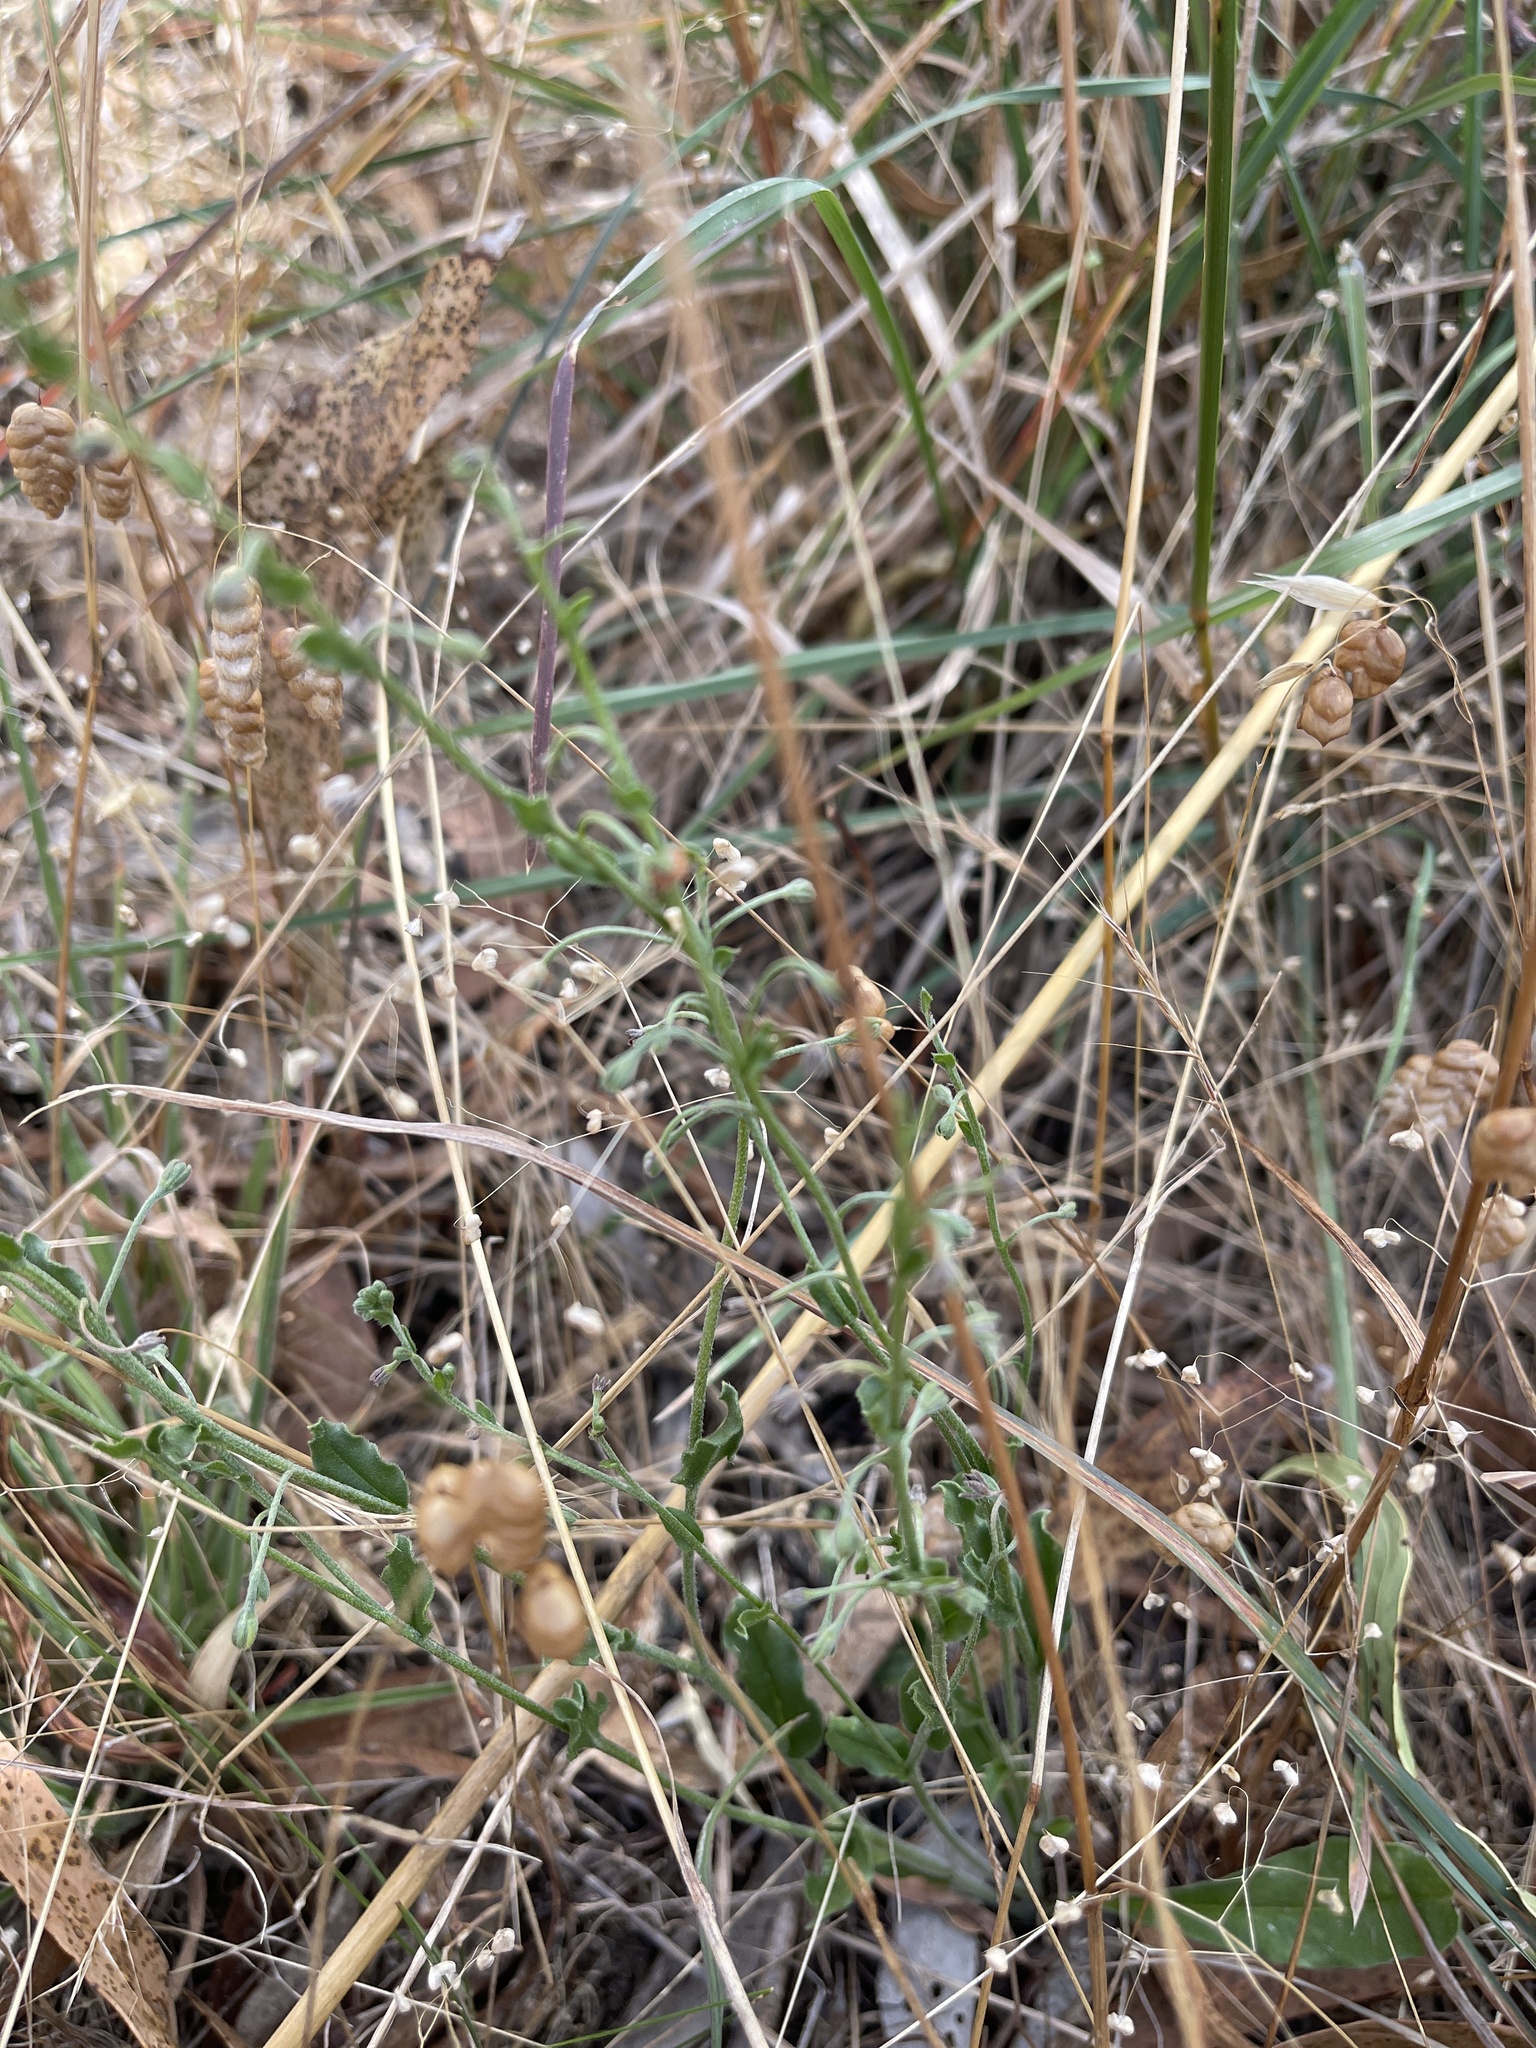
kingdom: Plantae
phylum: Tracheophyta
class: Magnoliopsida
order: Boraginales
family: Boraginaceae
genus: Hackelia
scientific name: Hackelia suaveolens
